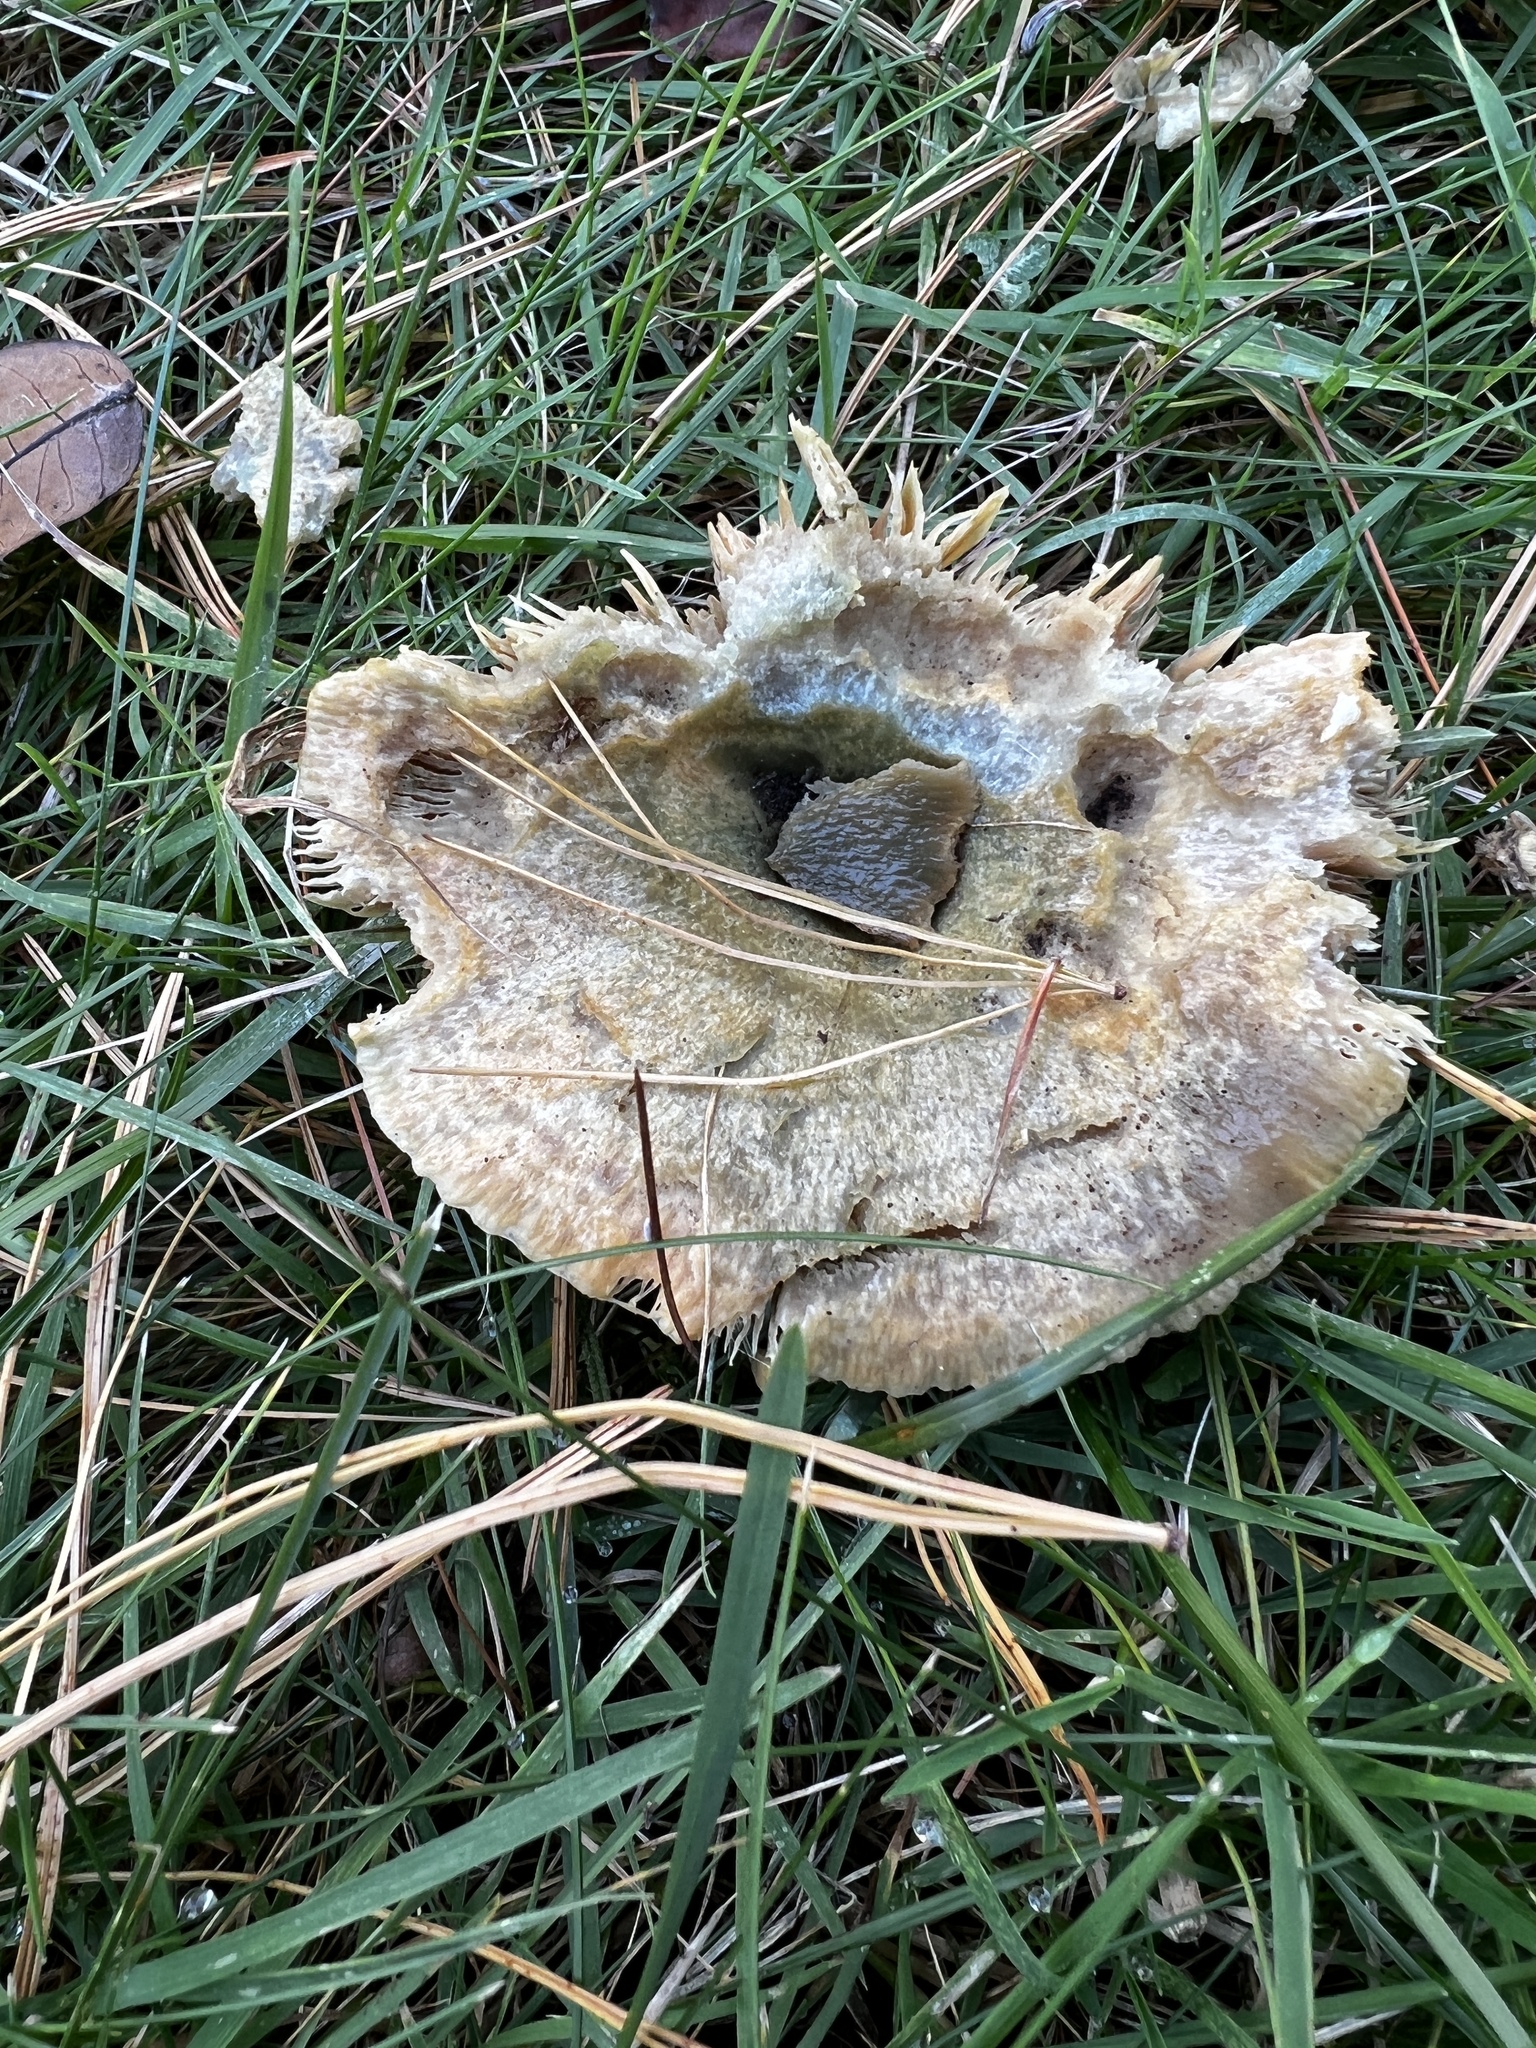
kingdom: Fungi
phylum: Basidiomycota
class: Agaricomycetes
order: Russulales
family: Russulaceae
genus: Lactarius
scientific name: Lactarius chelidonium
